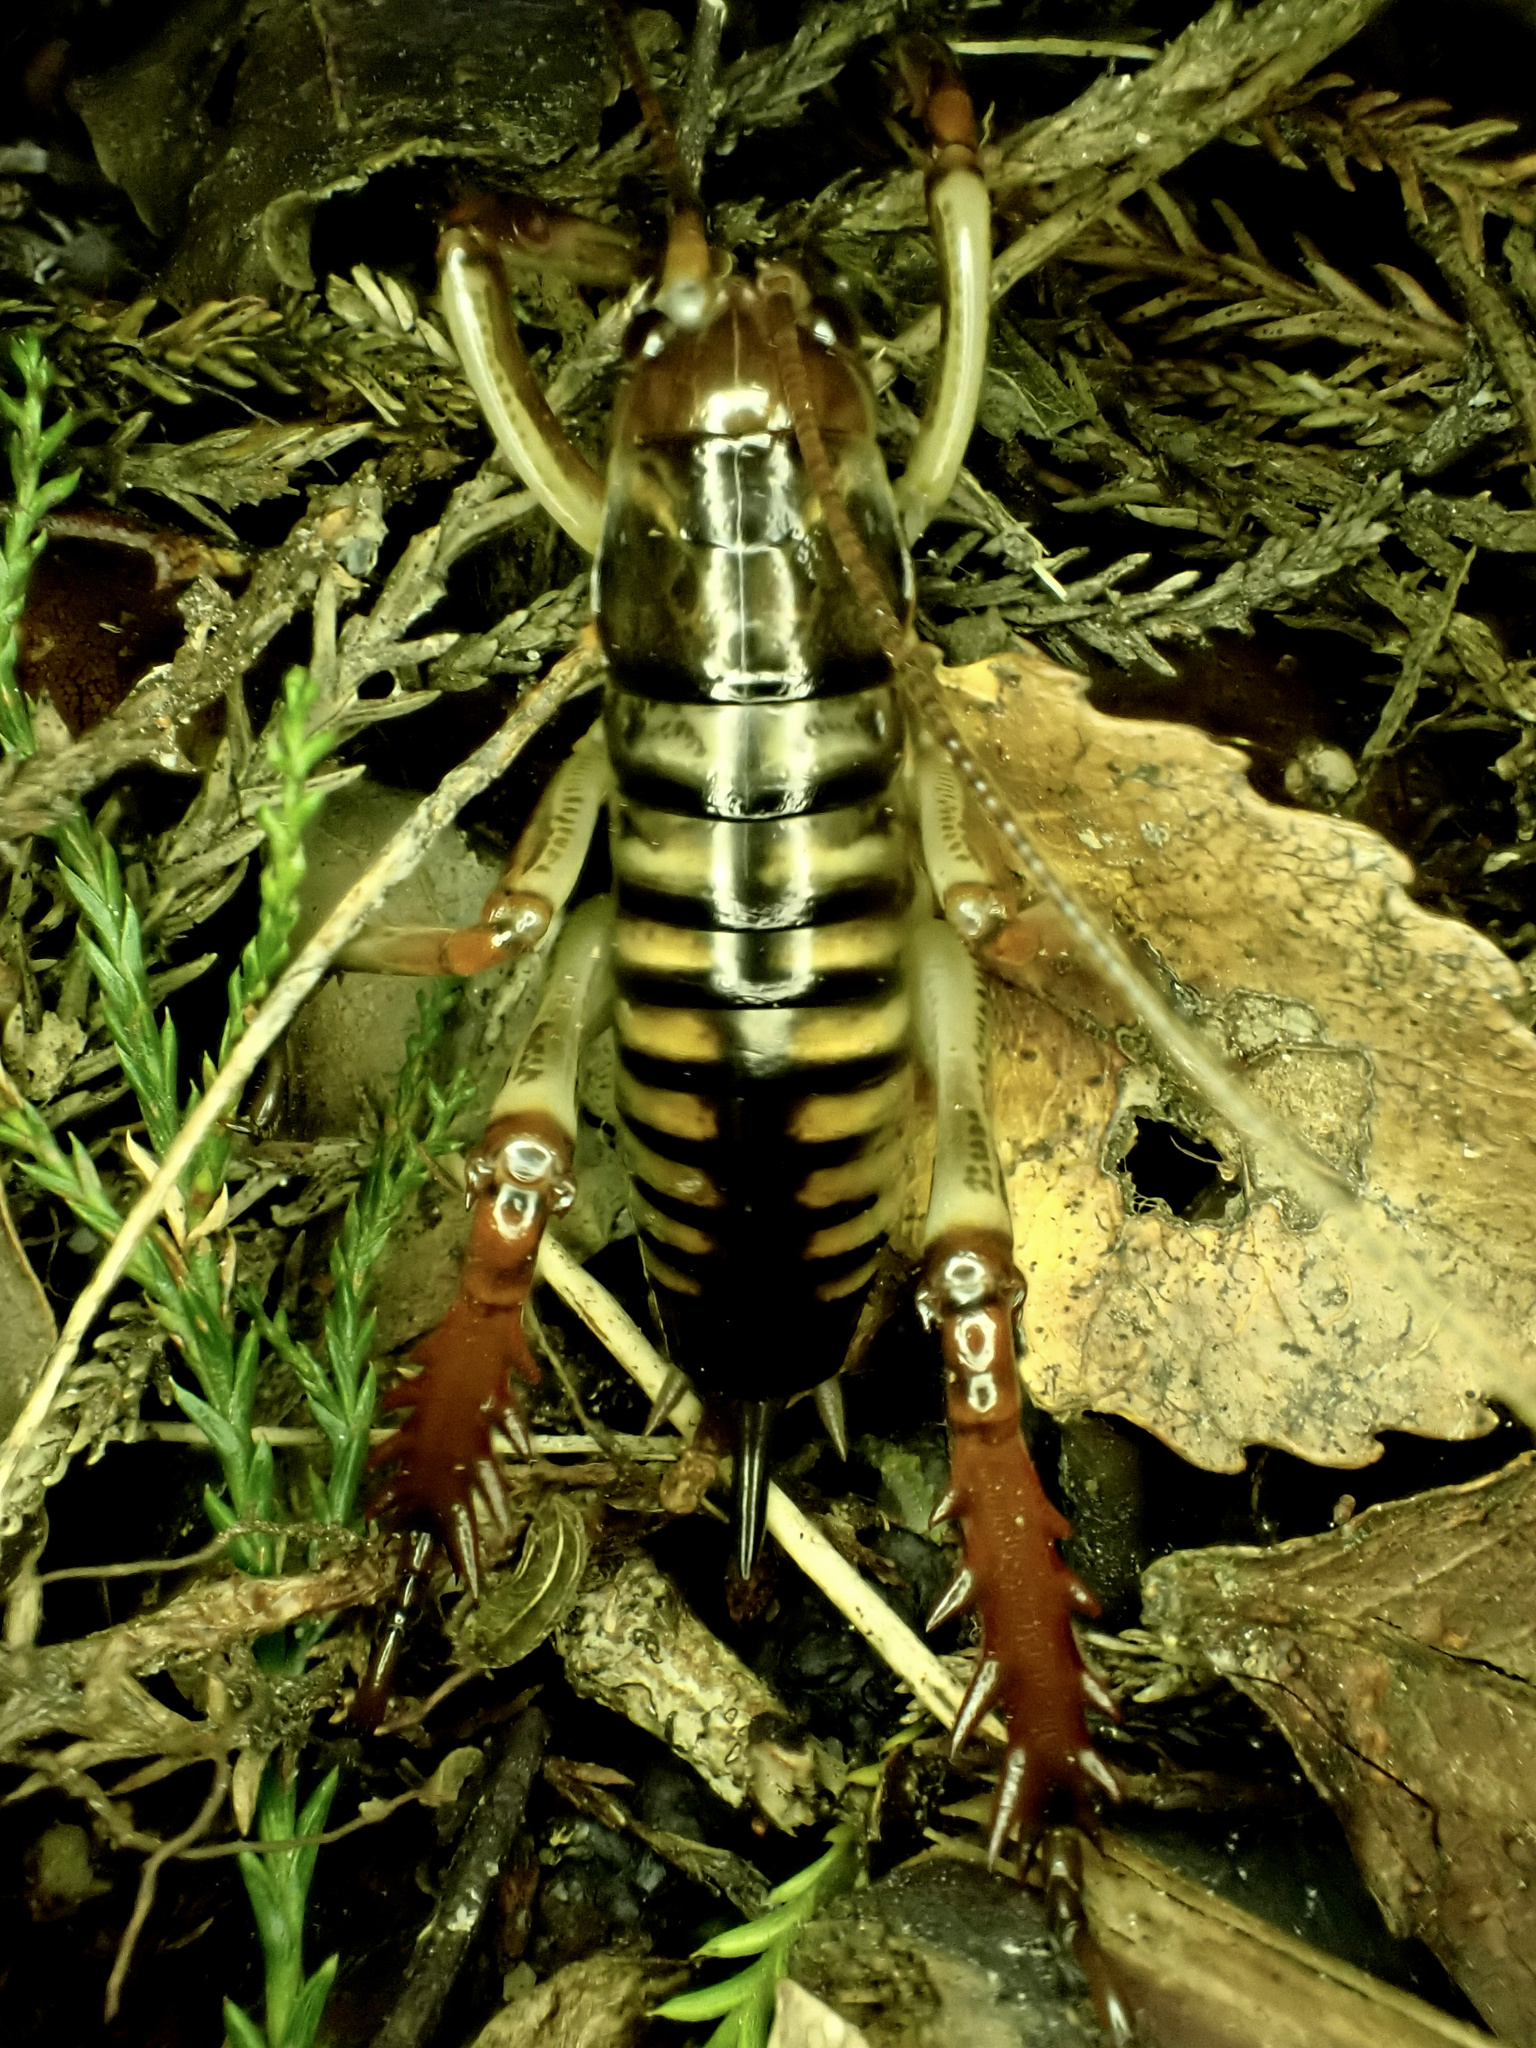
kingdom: Animalia
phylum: Arthropoda
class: Insecta
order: Orthoptera
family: Anostostomatidae
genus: Hemideina
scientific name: Hemideina crassidens
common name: Wellington tree weta
